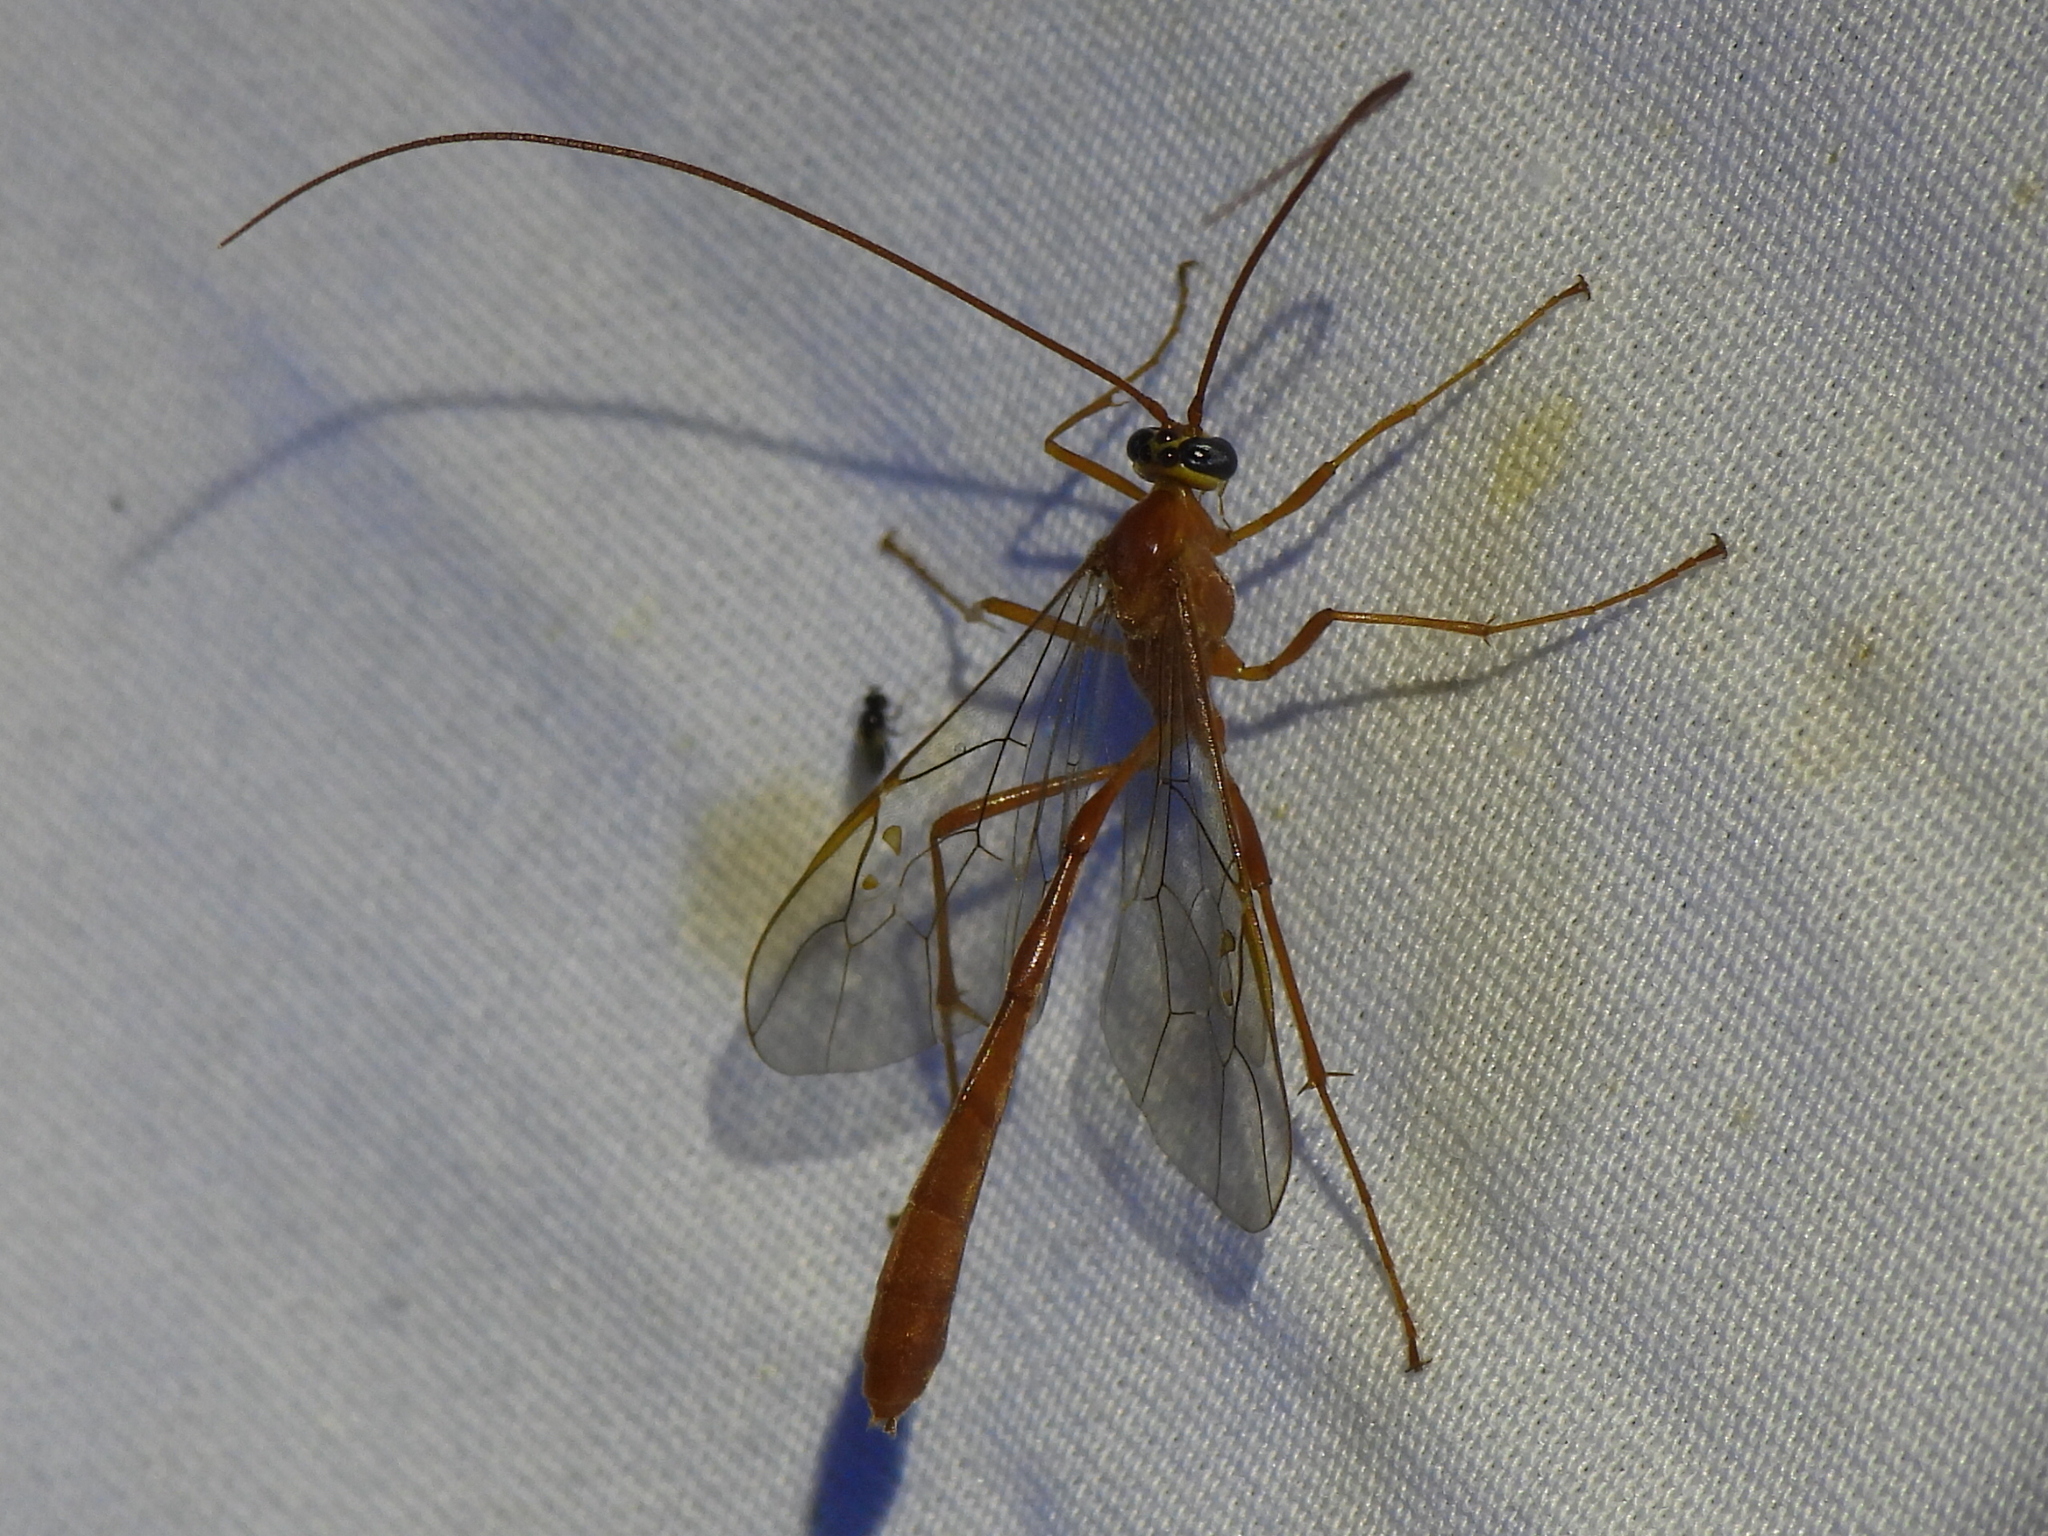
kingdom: Animalia
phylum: Arthropoda
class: Insecta
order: Hymenoptera
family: Ichneumonidae
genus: Enicospilus
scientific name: Enicospilus purgatus
